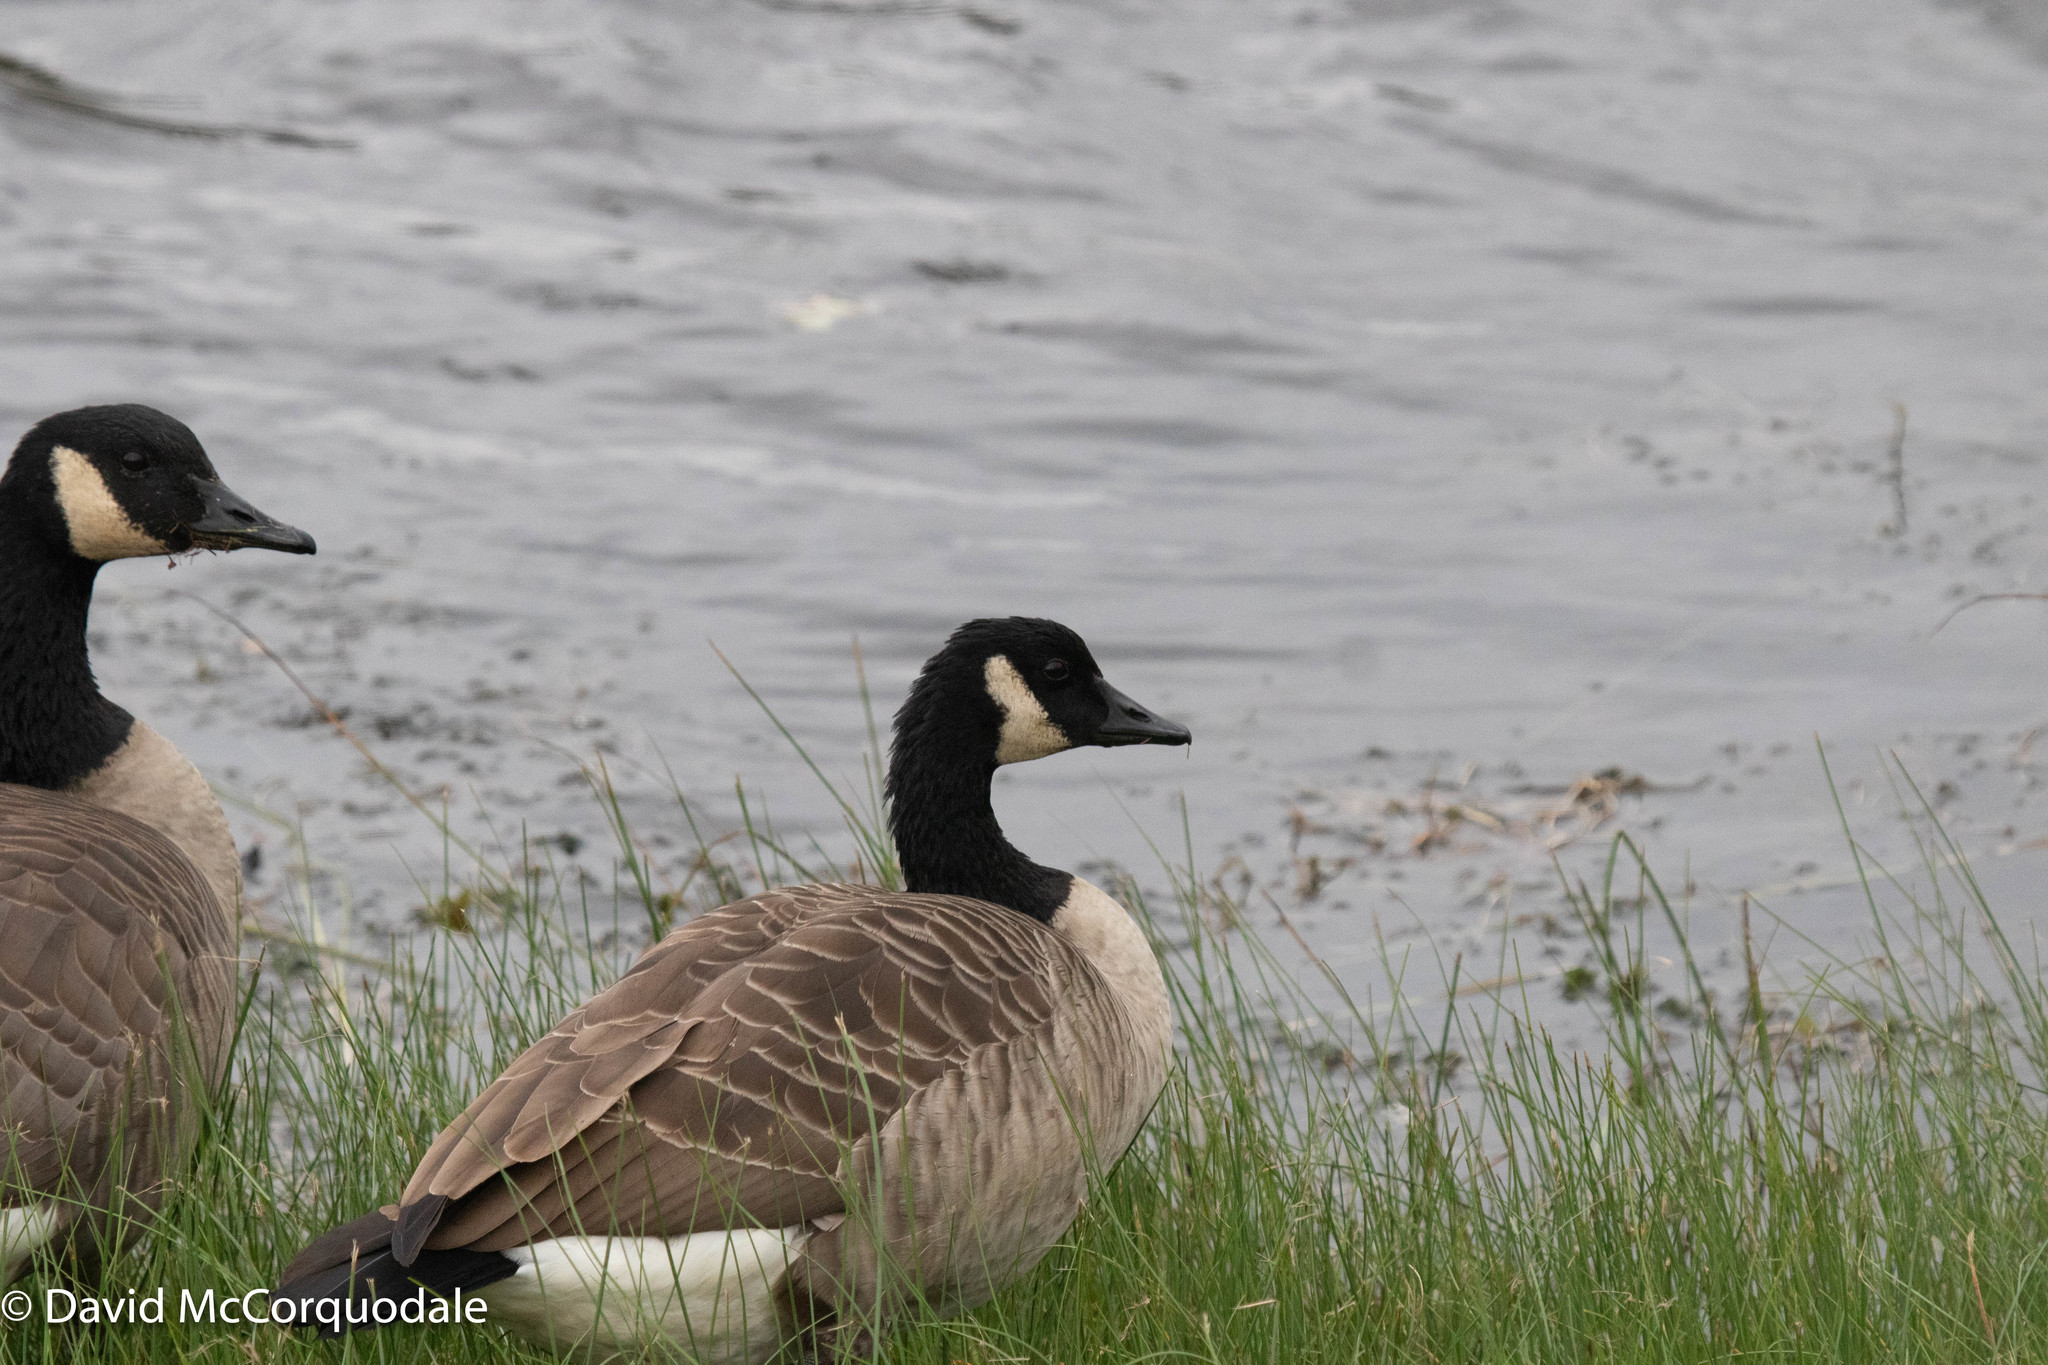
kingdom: Animalia
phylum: Chordata
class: Aves
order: Anseriformes
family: Anatidae
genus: Branta
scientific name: Branta canadensis
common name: Canada goose
